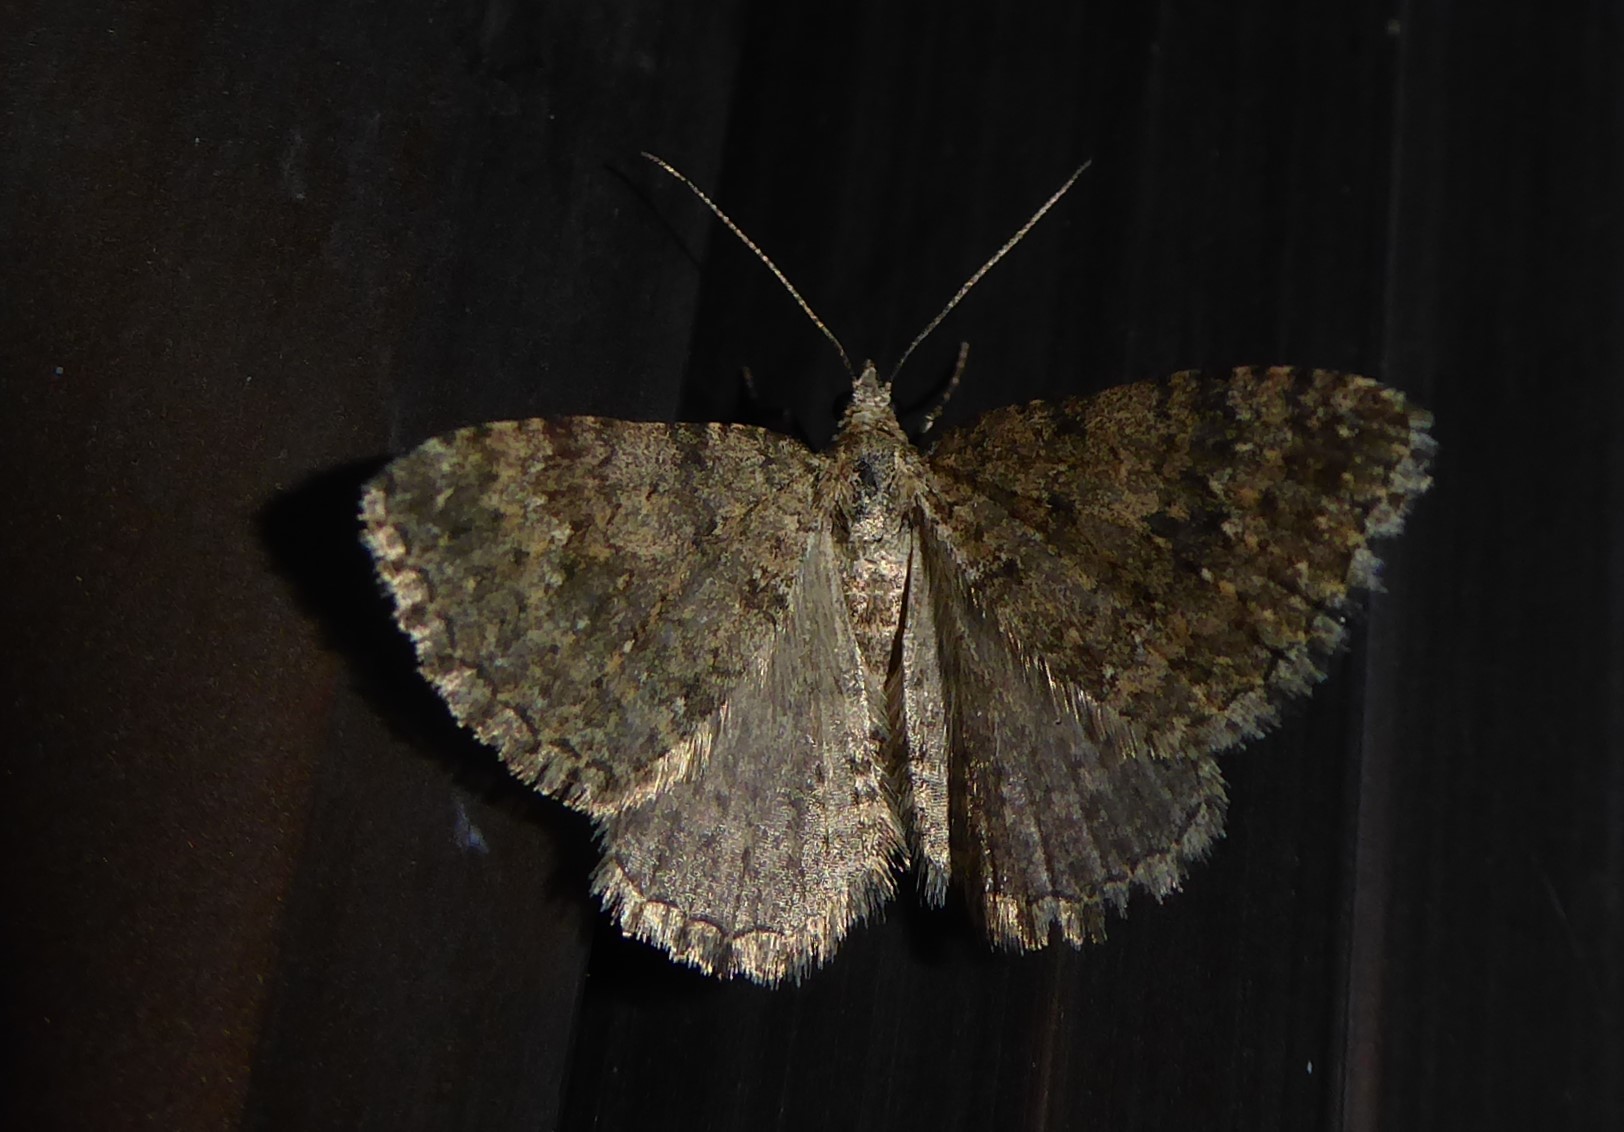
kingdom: Animalia
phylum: Arthropoda
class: Insecta
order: Lepidoptera
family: Geometridae
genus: Helastia
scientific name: Helastia corcularia
